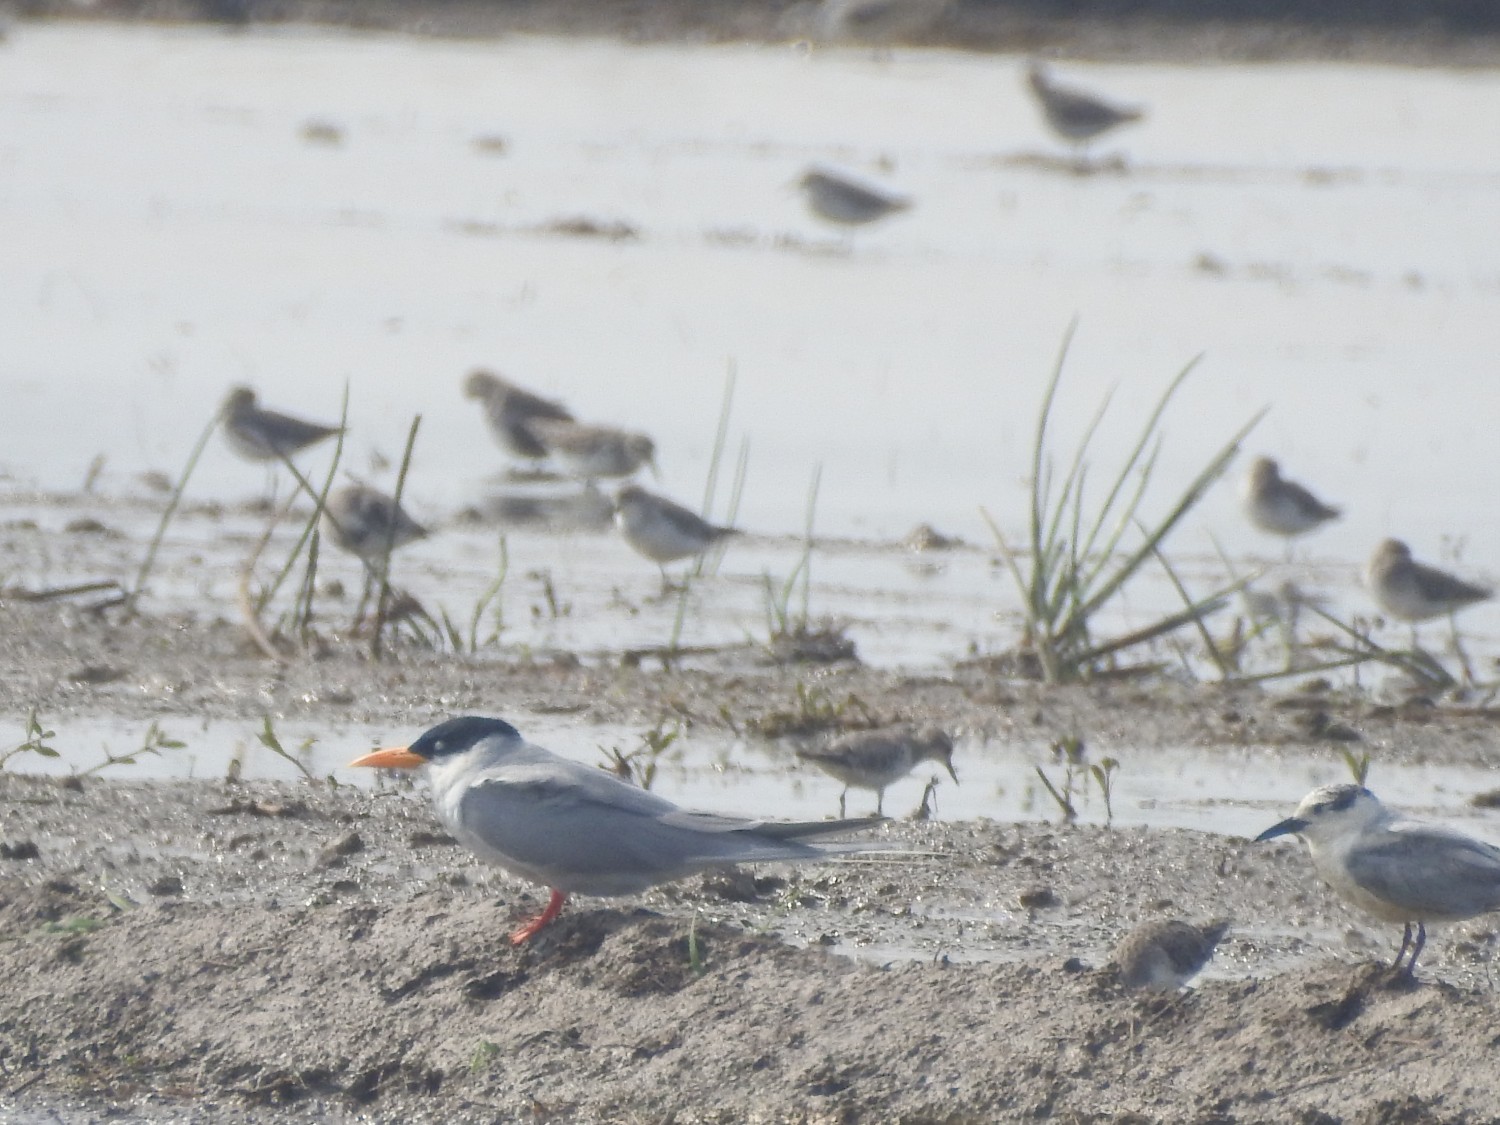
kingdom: Animalia
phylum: Chordata
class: Aves
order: Charadriiformes
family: Laridae
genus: Sterna
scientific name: Sterna aurantia
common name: River tern
